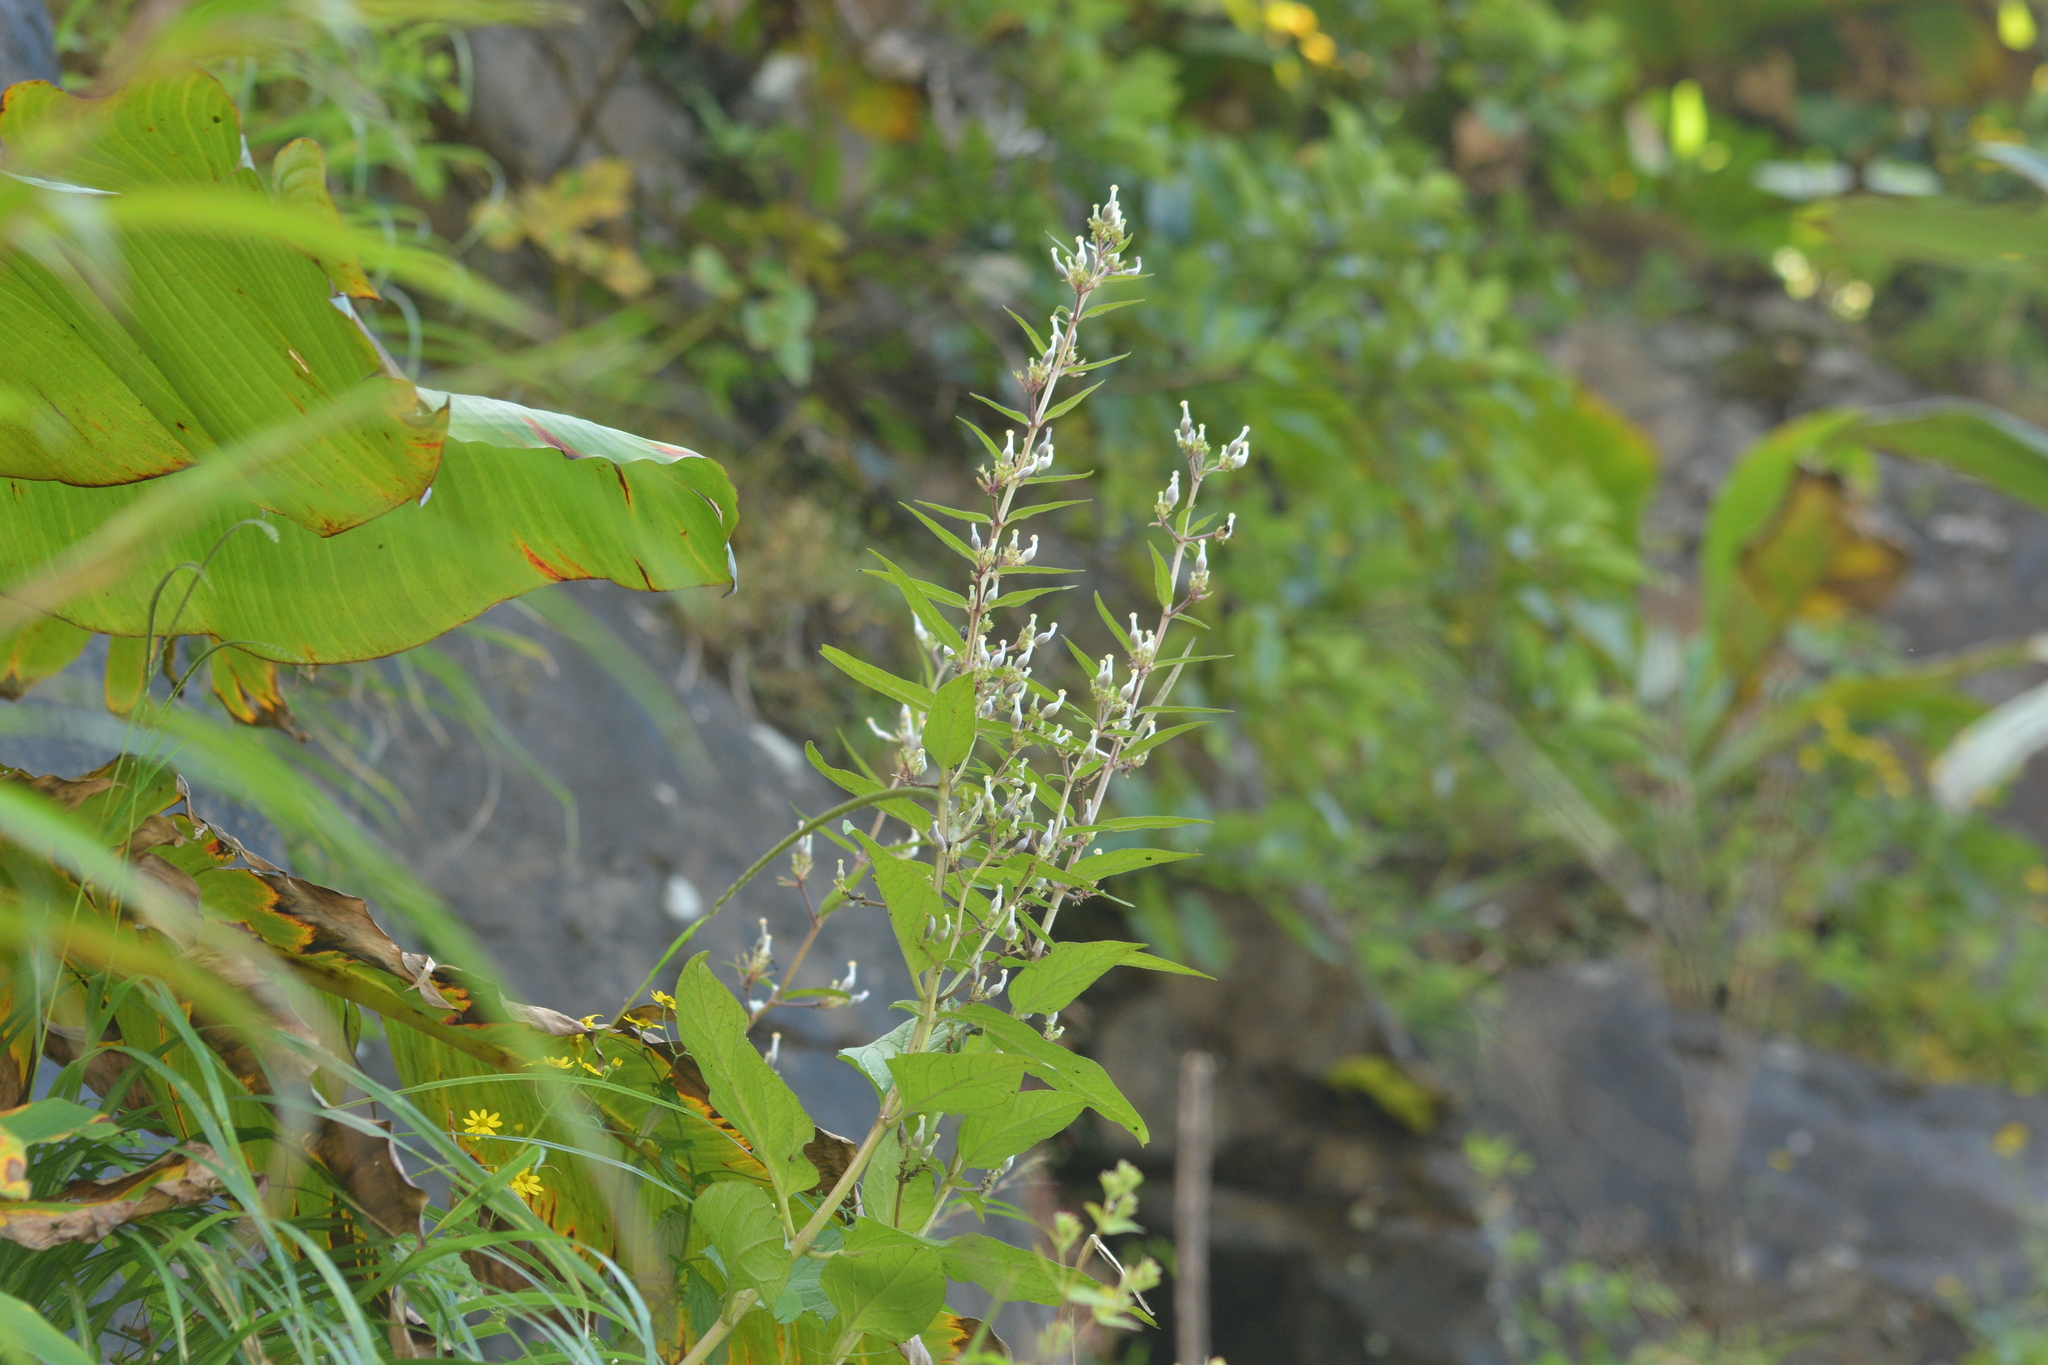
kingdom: Plantae
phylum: Tracheophyta
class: Magnoliopsida
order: Gentianales
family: Apocynaceae
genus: Ceropegia
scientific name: Ceropegia lawii
